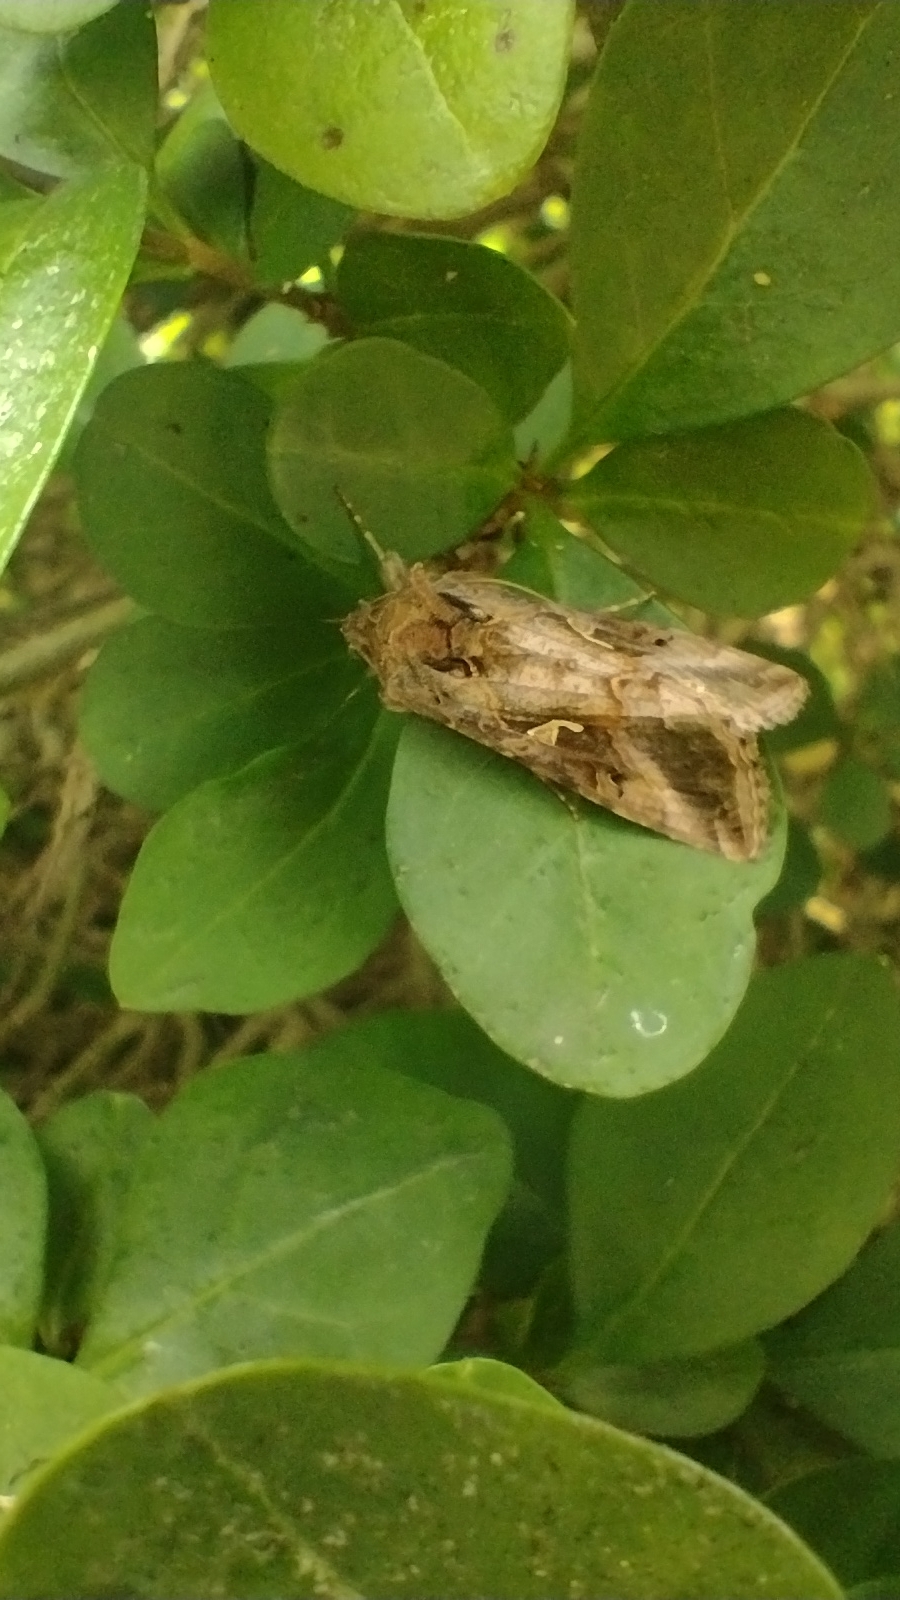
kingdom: Animalia
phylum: Arthropoda
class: Insecta
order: Lepidoptera
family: Noctuidae
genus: Autographa
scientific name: Autographa gamma
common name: Silver y
